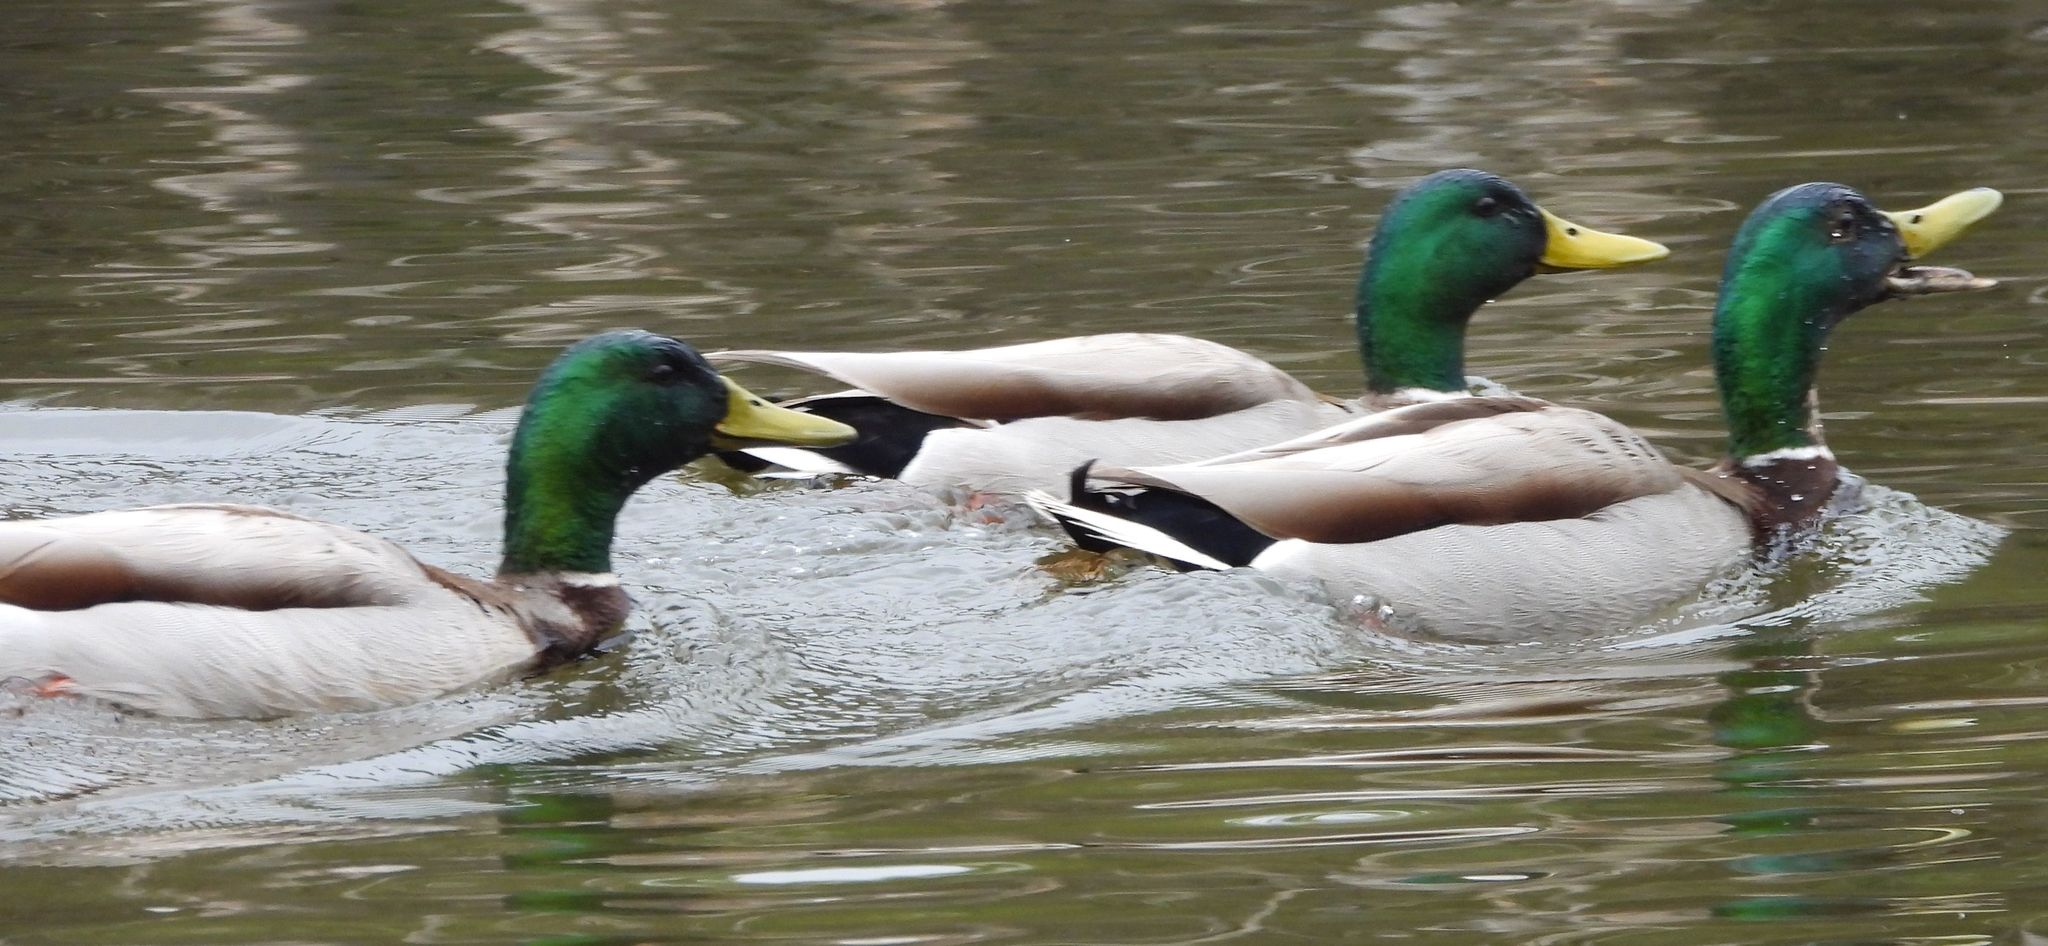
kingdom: Animalia
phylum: Chordata
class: Aves
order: Anseriformes
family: Anatidae
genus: Anas
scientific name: Anas platyrhynchos
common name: Mallard
